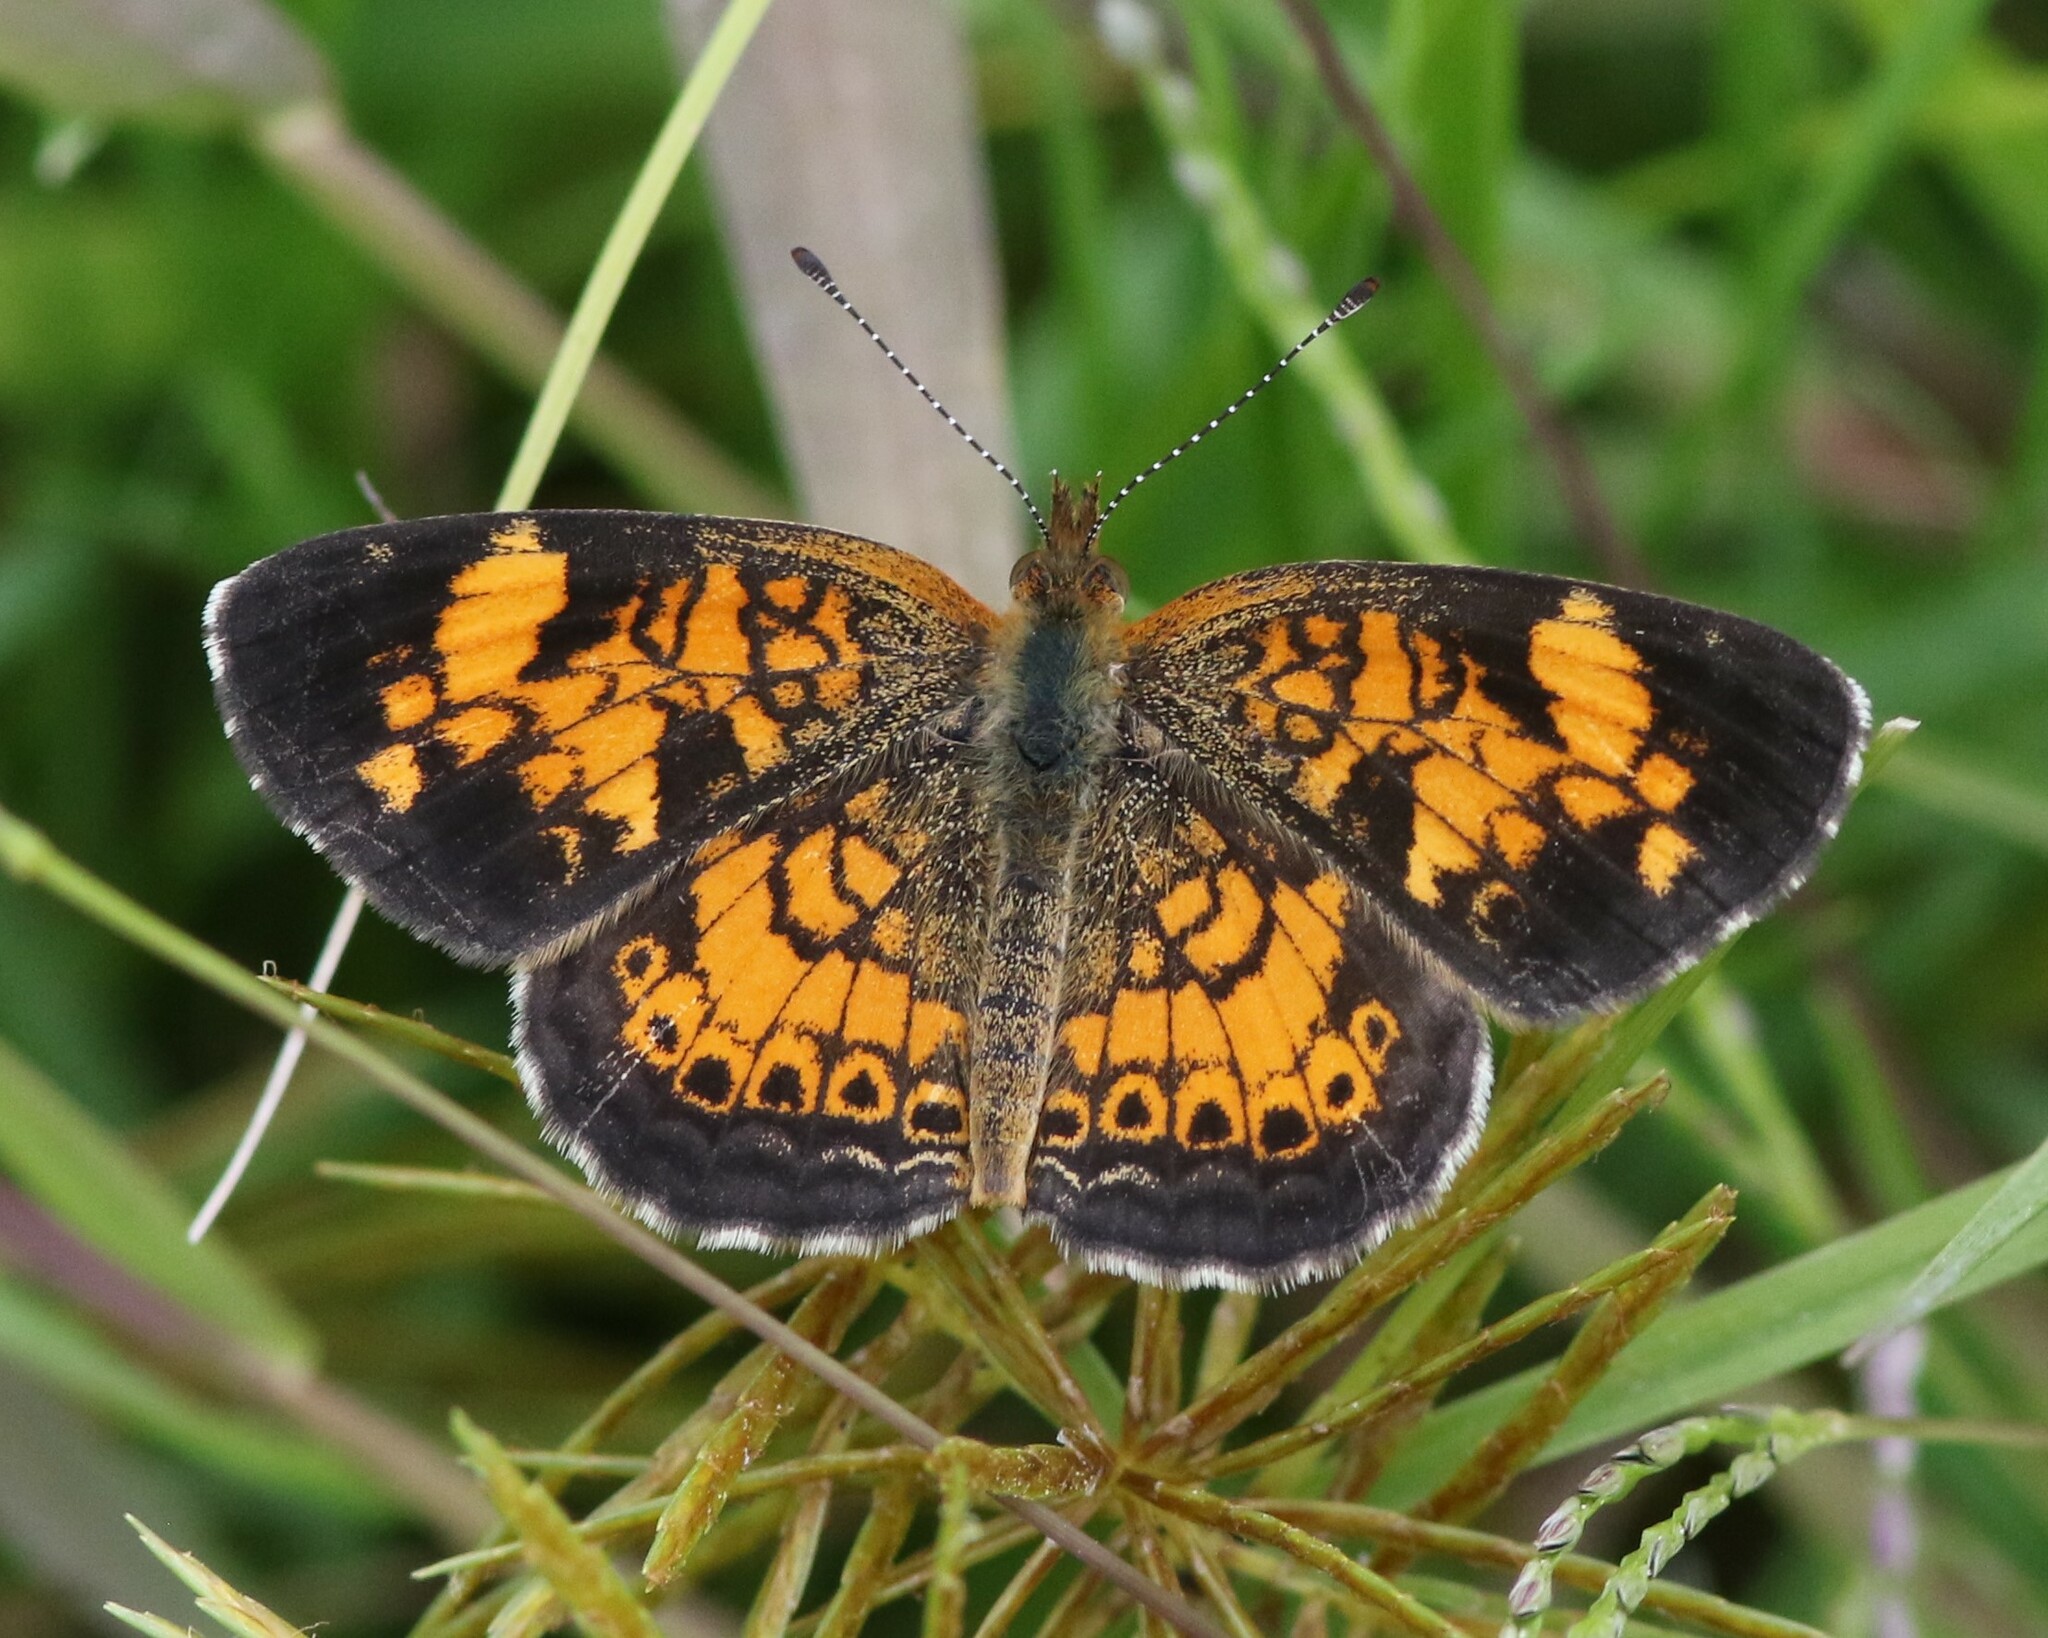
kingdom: Animalia
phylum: Arthropoda
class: Insecta
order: Lepidoptera
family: Nymphalidae
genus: Phyciodes
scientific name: Phyciodes tharos
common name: Pearl crescent
